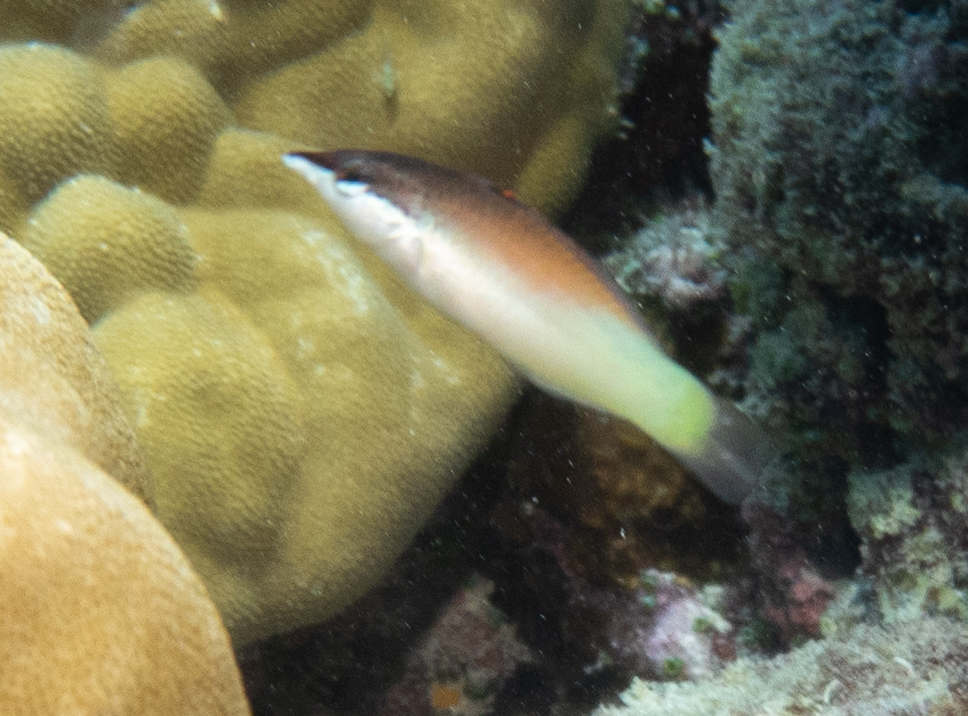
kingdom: Animalia
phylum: Chordata
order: Perciformes
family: Labridae
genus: Gomphosus
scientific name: Gomphosus caeruleus
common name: Bird wrasse
